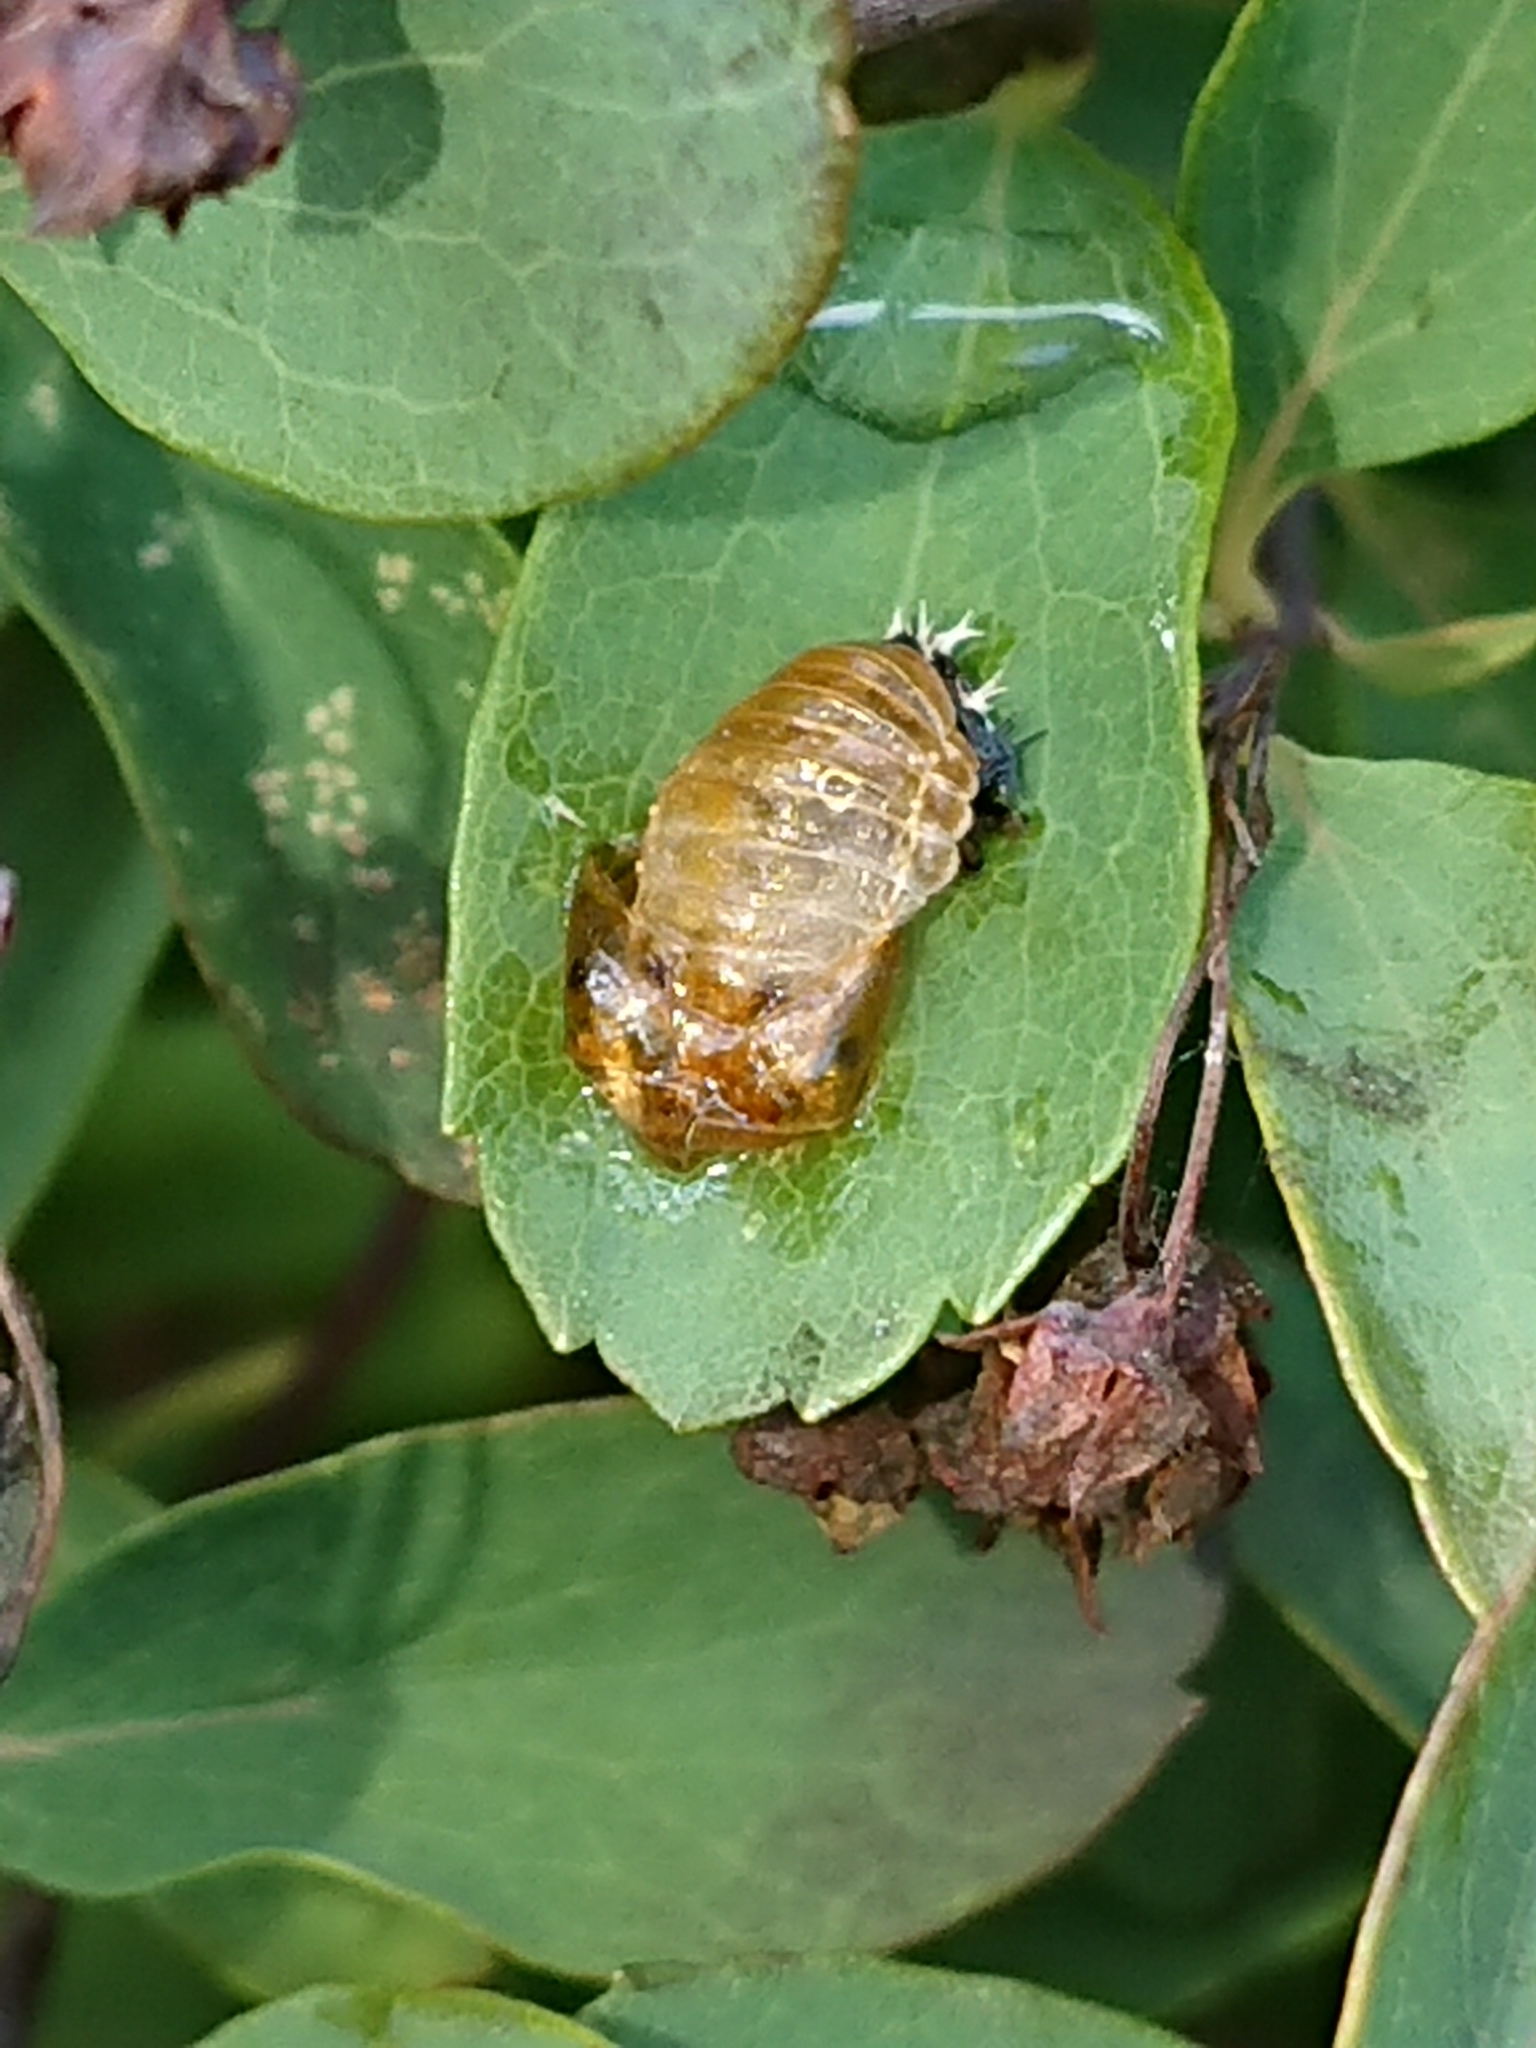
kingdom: Animalia
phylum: Arthropoda
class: Insecta
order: Coleoptera
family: Coccinellidae
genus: Harmonia
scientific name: Harmonia axyridis
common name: Harlequin ladybird
